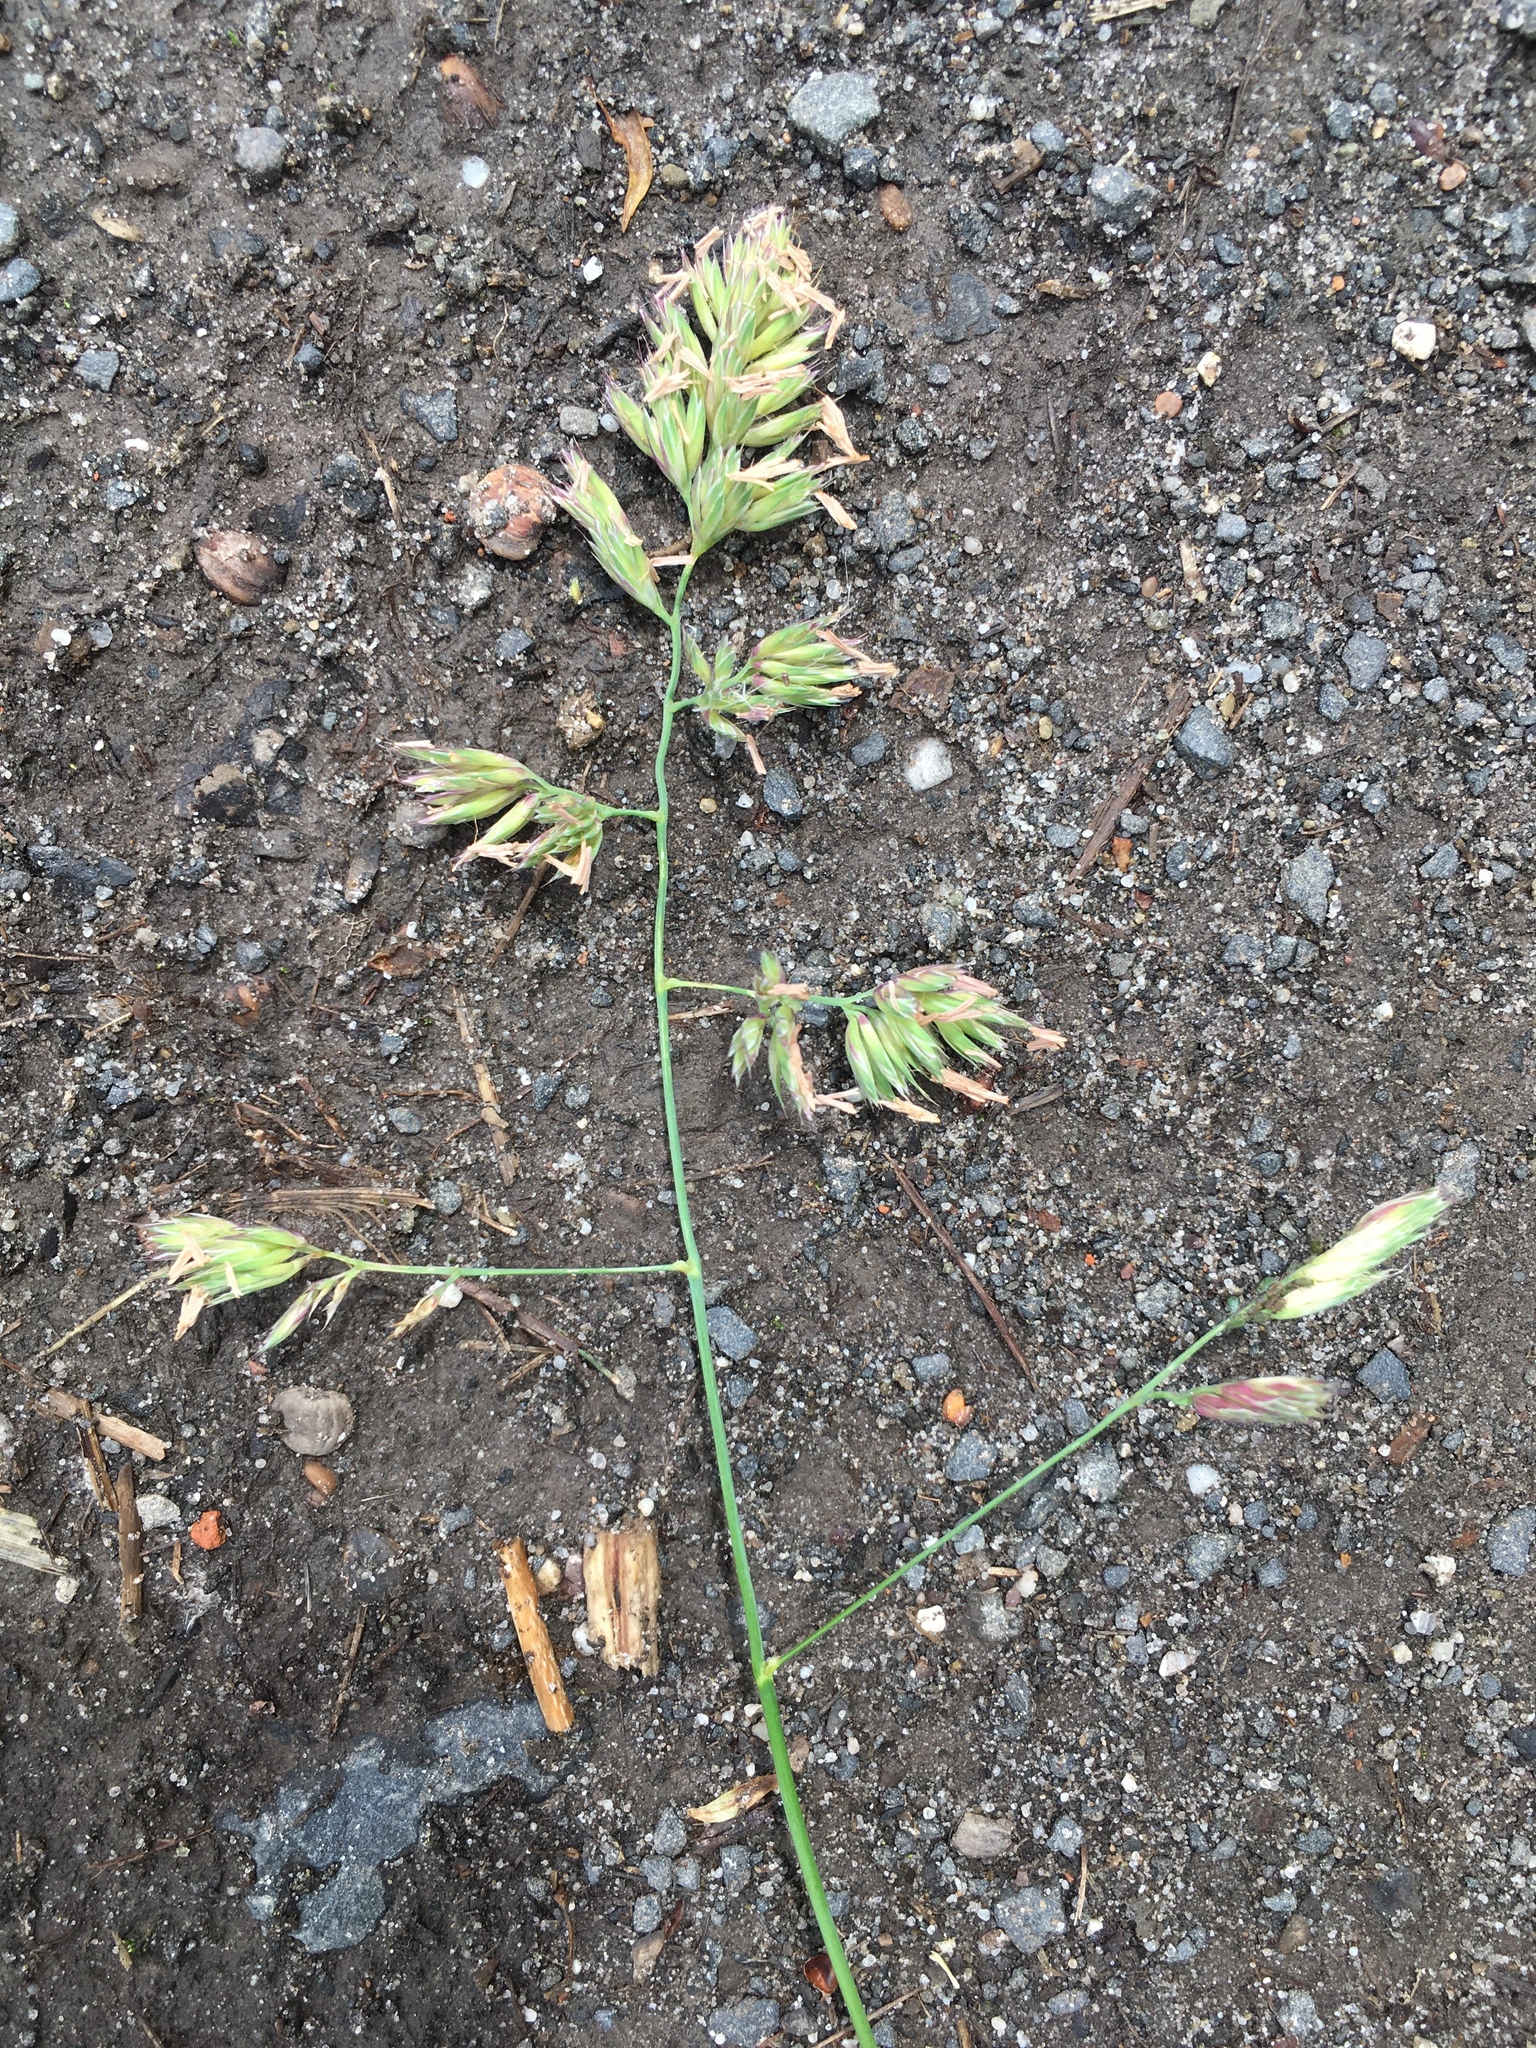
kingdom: Plantae
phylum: Tracheophyta
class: Liliopsida
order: Poales
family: Poaceae
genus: Dactylis
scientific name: Dactylis glomerata
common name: Orchardgrass
